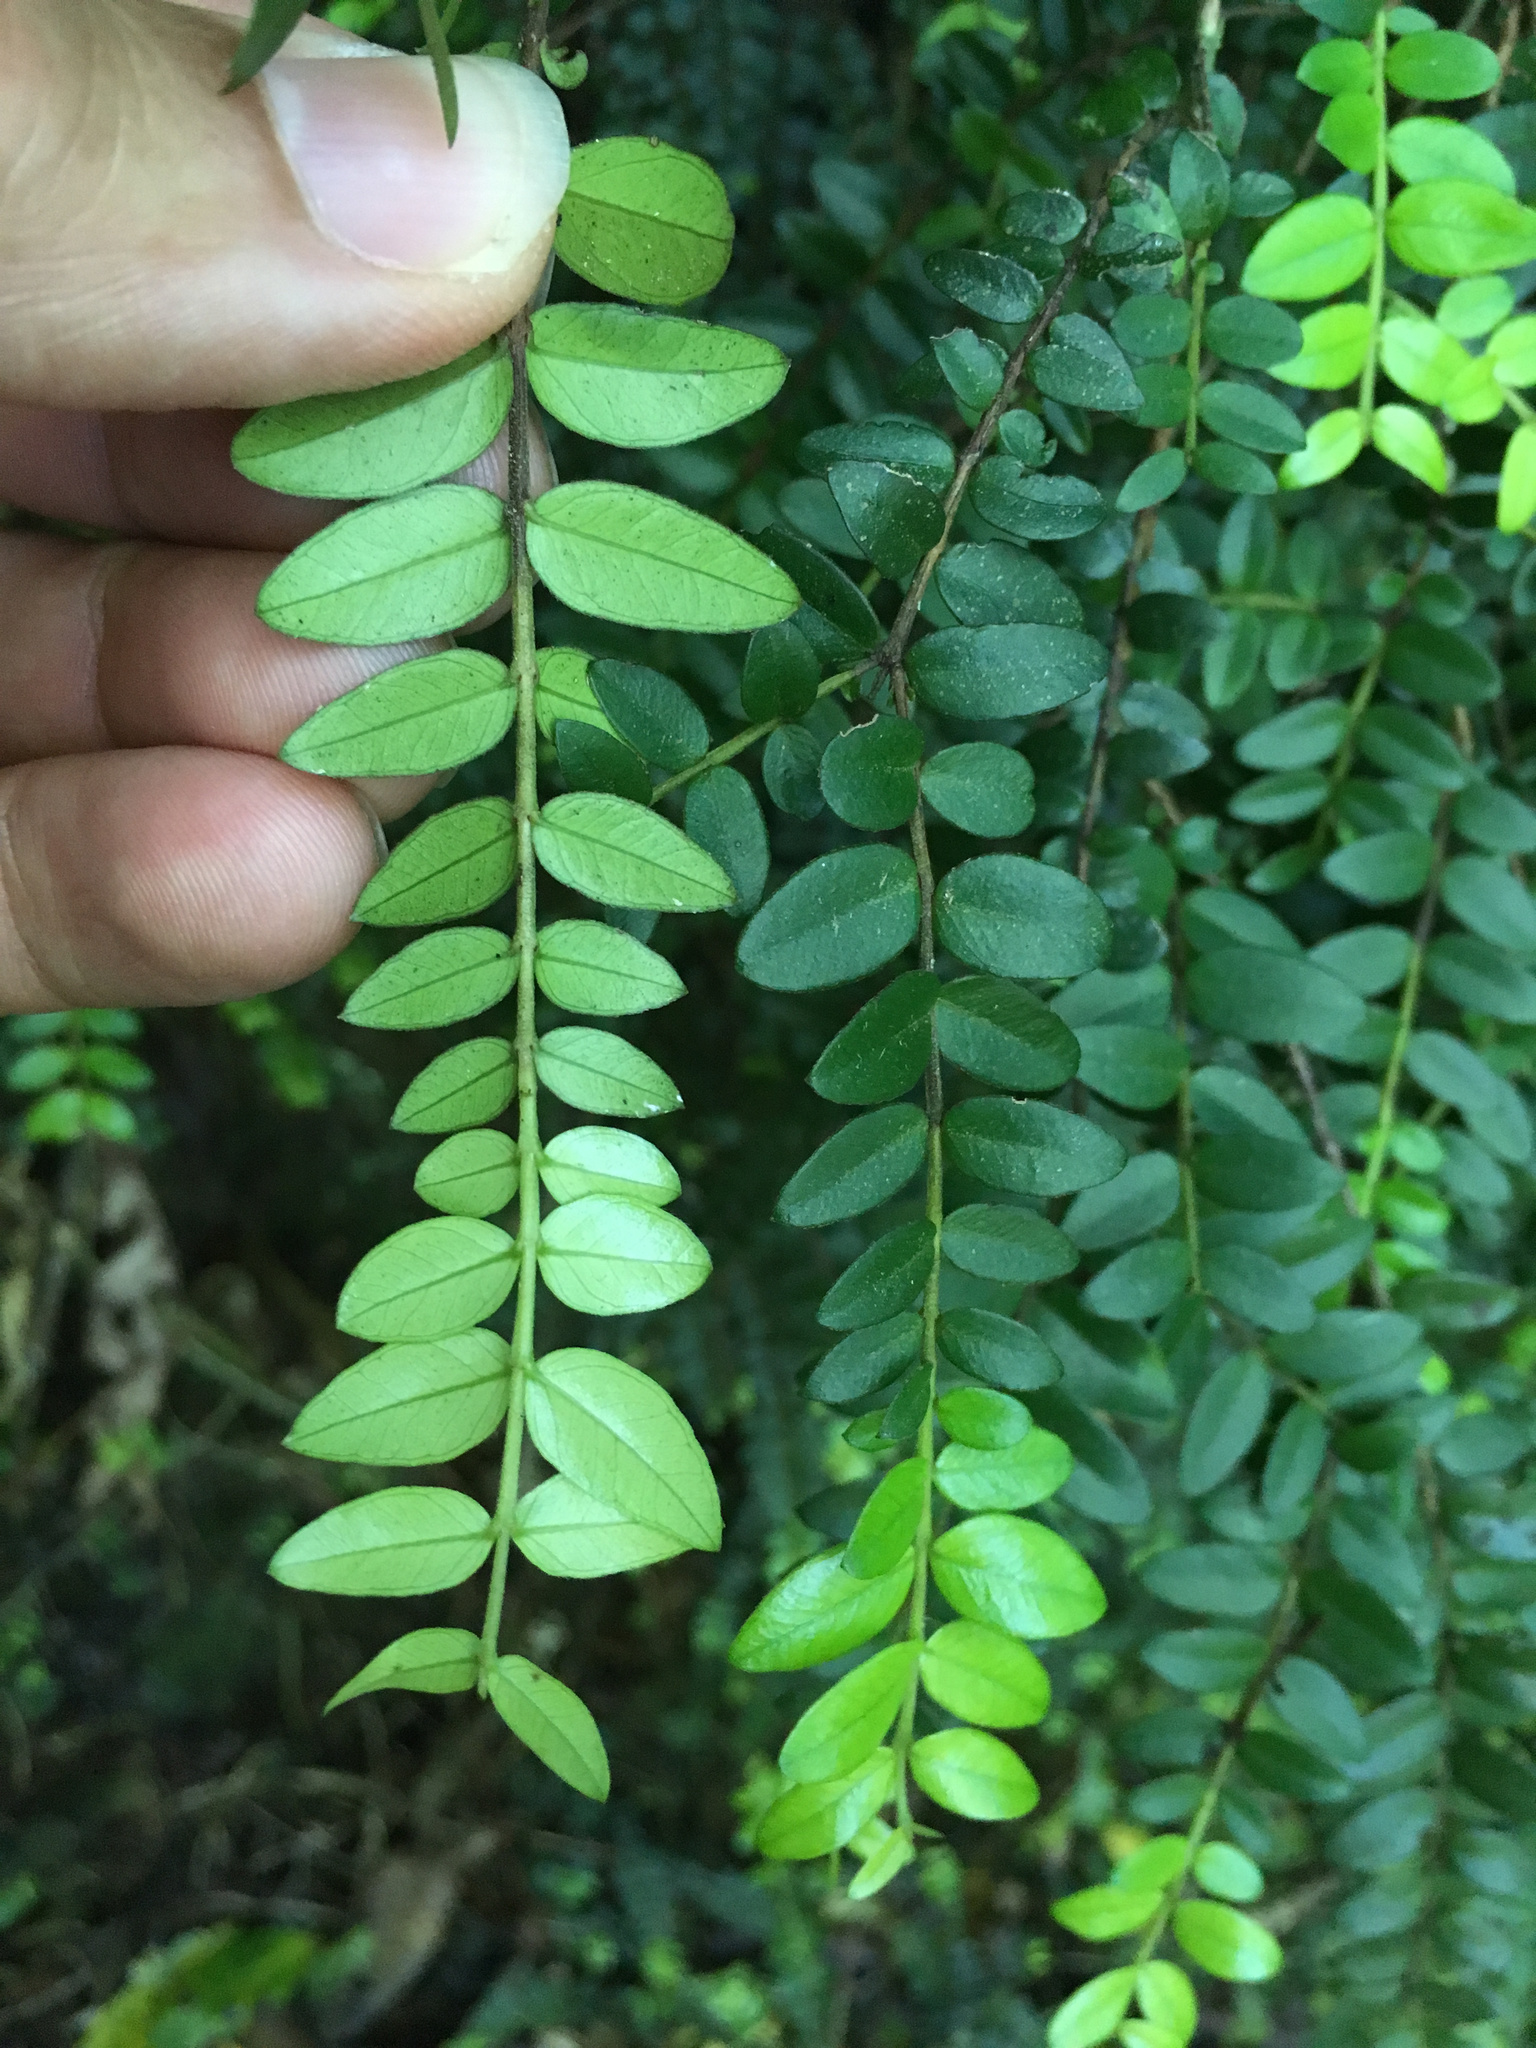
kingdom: Plantae
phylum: Tracheophyta
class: Magnoliopsida
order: Myrtales
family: Myrtaceae
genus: Metrosideros
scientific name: Metrosideros diffusa
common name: Small ratavine
